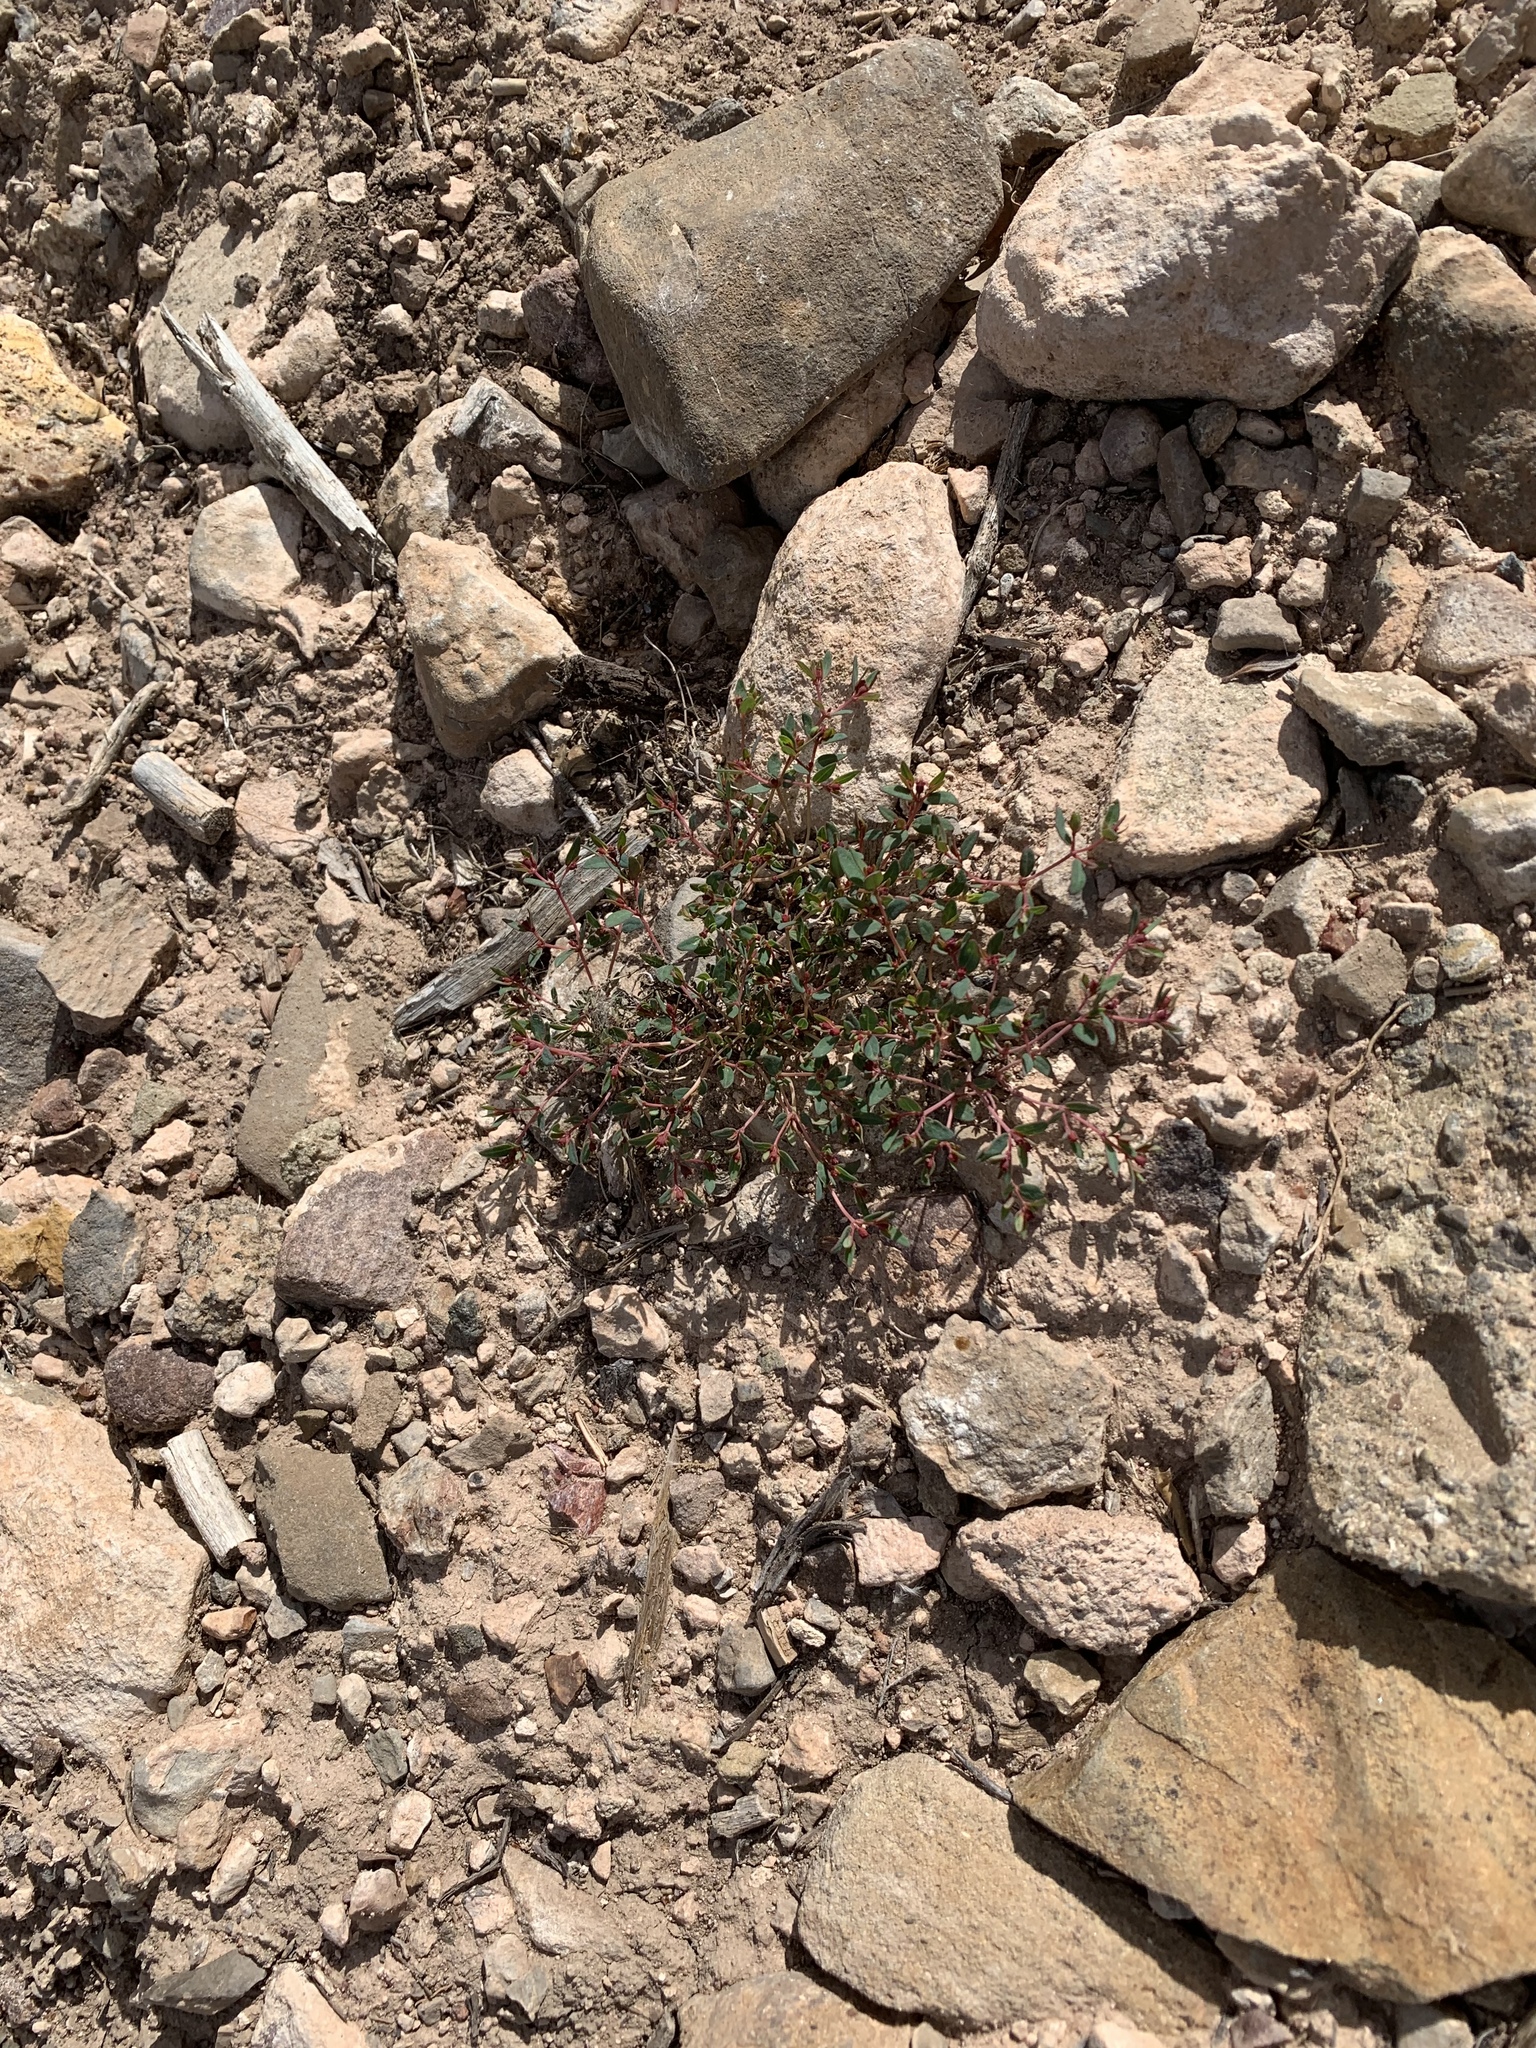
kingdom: Plantae
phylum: Tracheophyta
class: Magnoliopsida
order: Malpighiales
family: Euphorbiaceae
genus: Euphorbia
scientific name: Euphorbia fendleri
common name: Fendler's euphorbia
